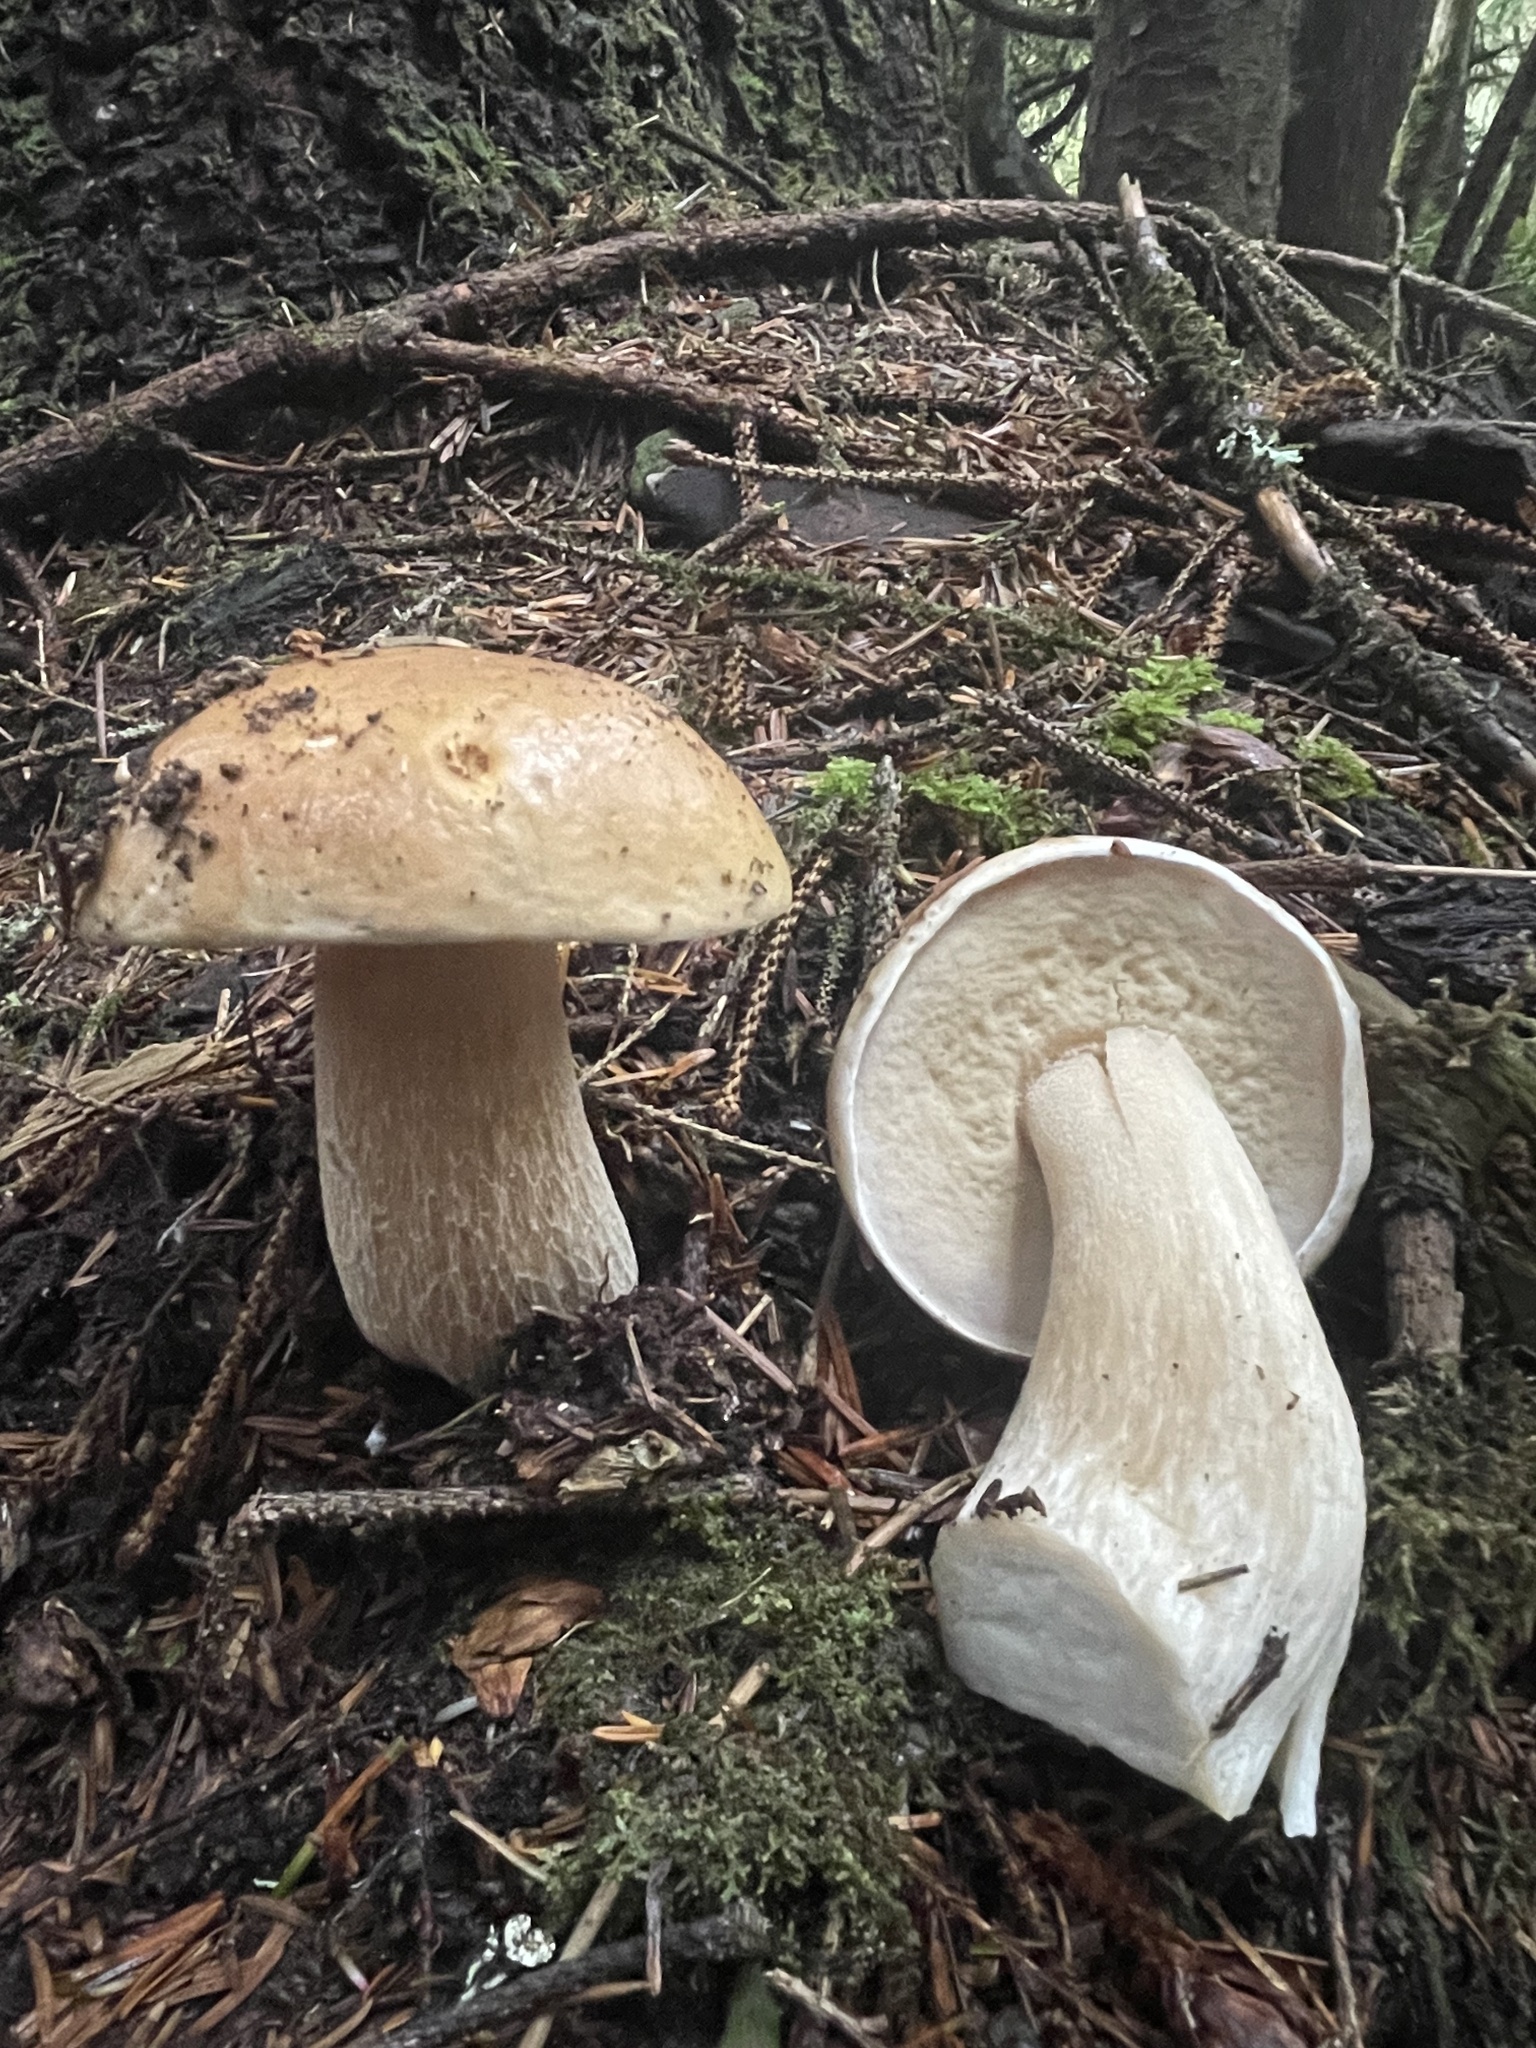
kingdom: Fungi
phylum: Basidiomycota
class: Agaricomycetes
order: Boletales
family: Boletaceae
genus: Boletus
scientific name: Boletus edulis
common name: Cep
